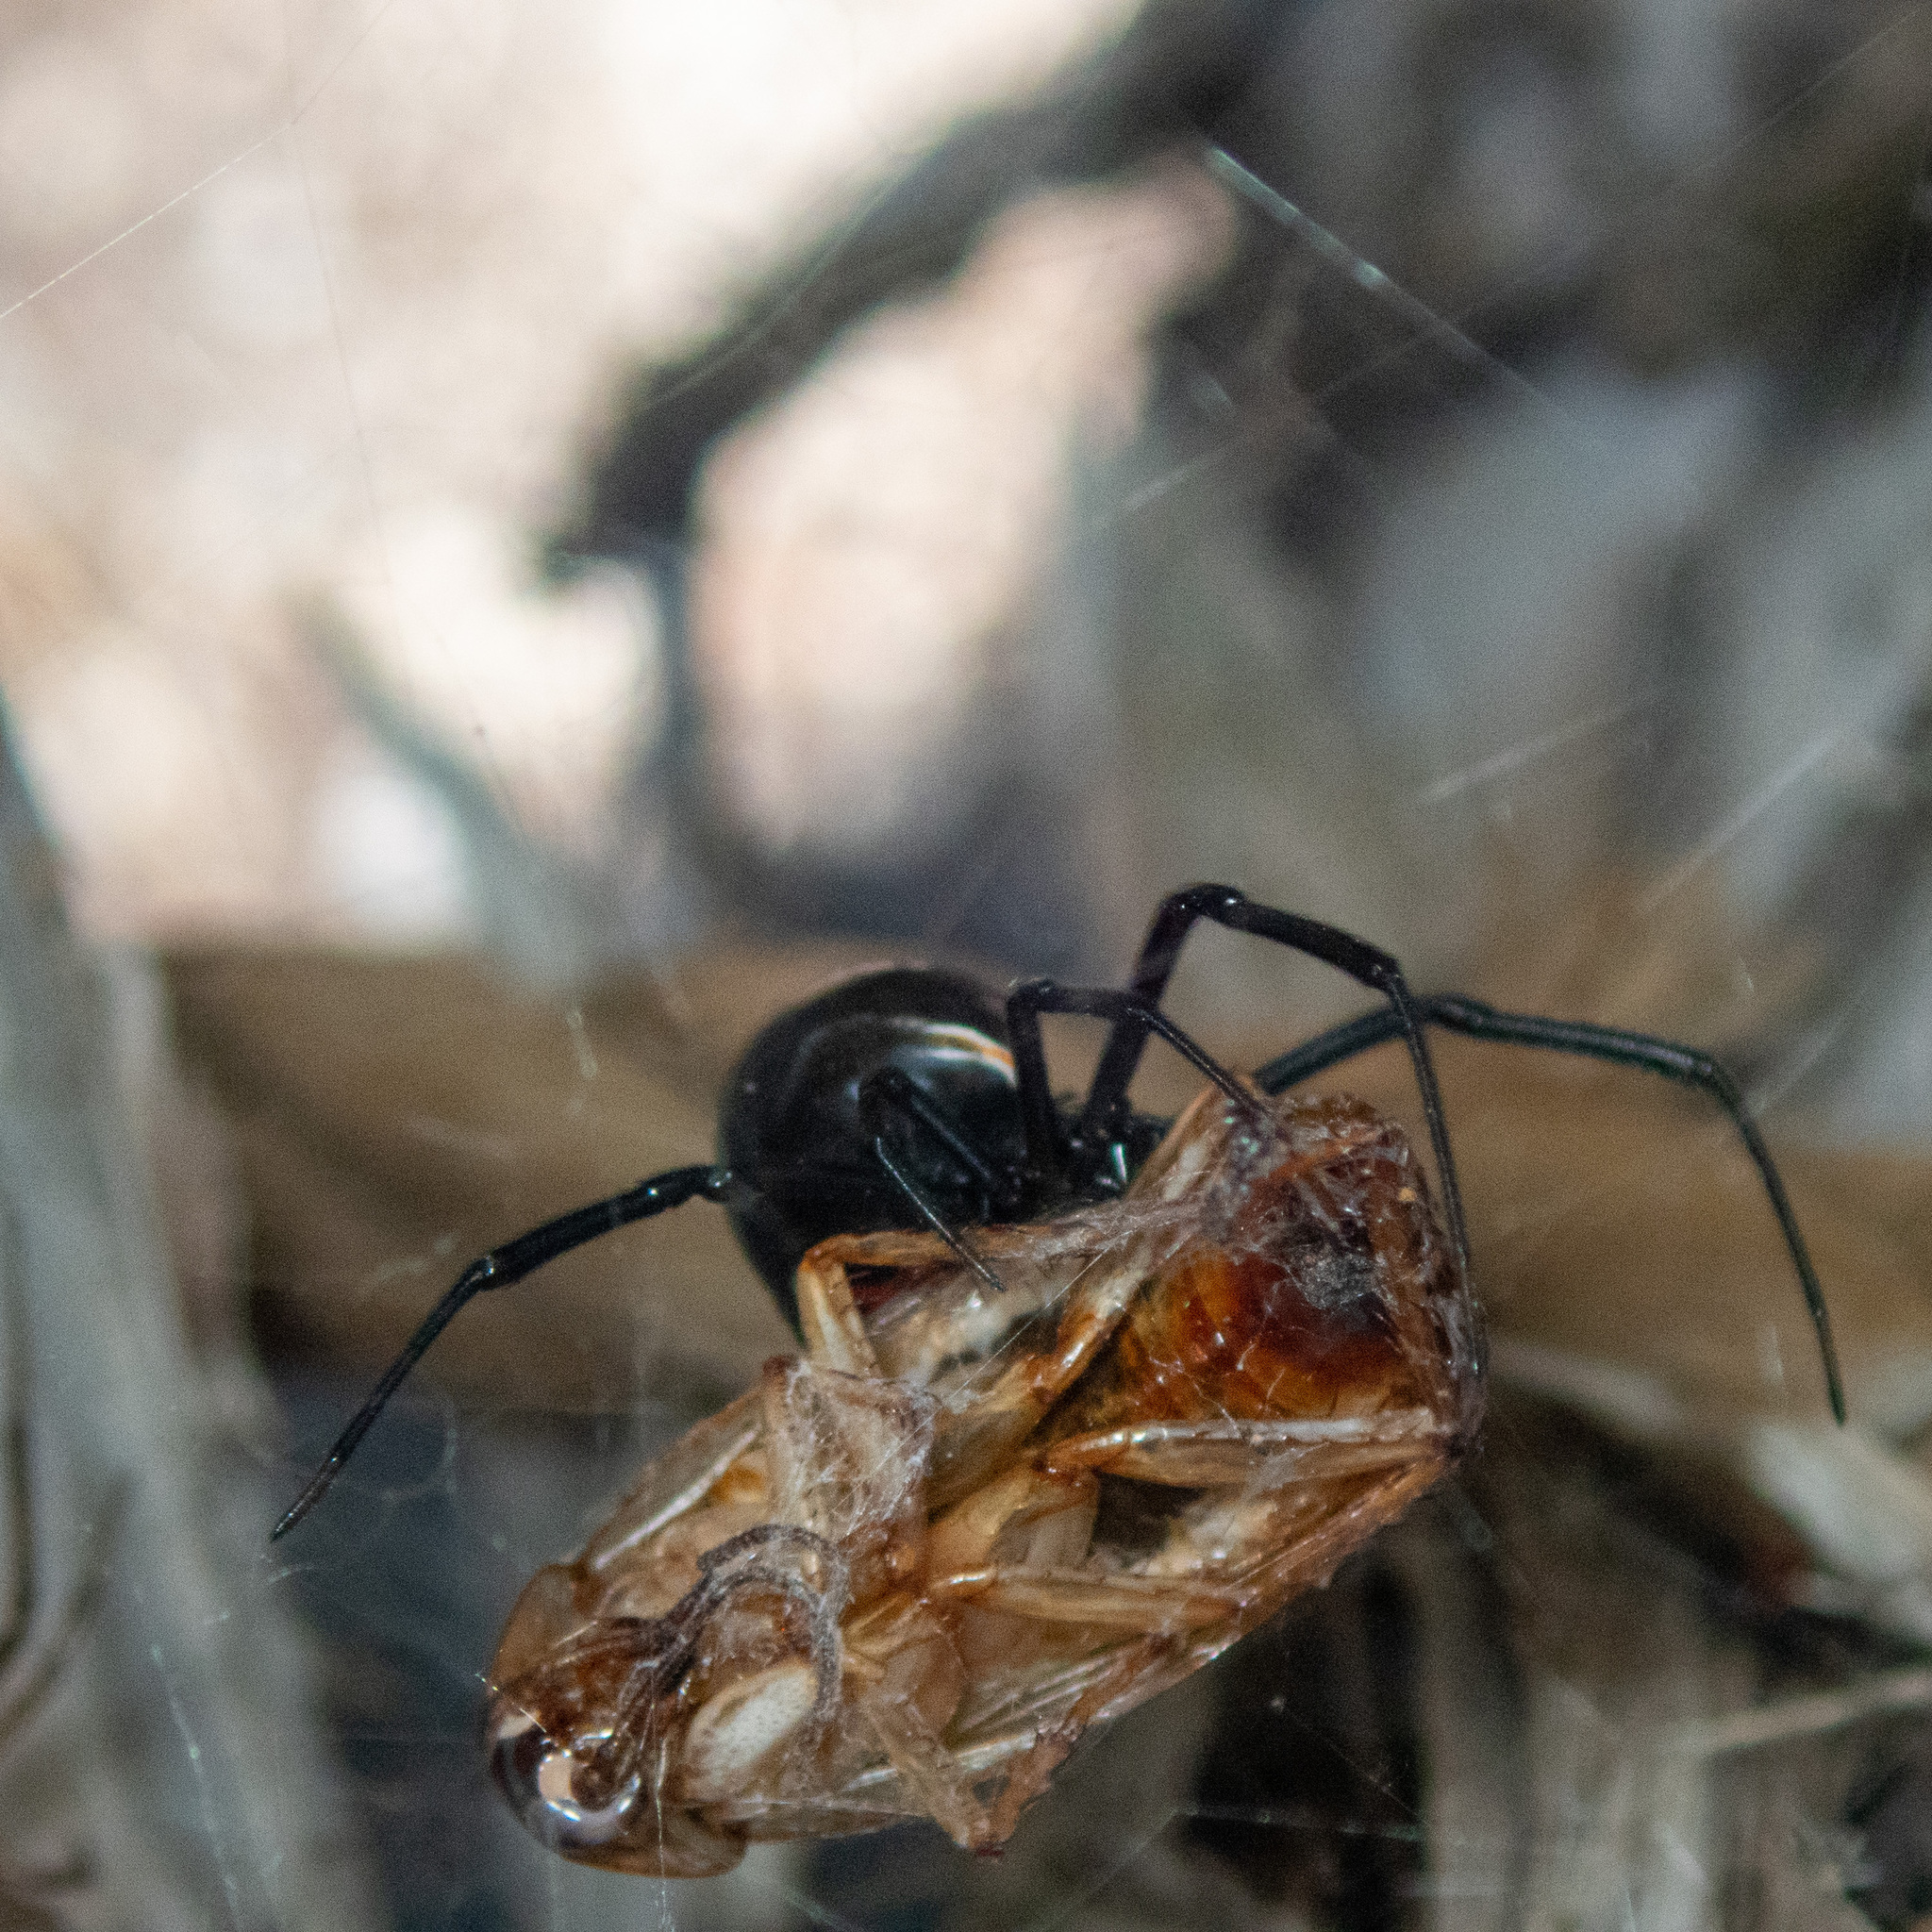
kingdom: Animalia
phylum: Arthropoda
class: Arachnida
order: Araneae
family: Theridiidae
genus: Latrodectus
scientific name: Latrodectus hesperus
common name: Western black widow
